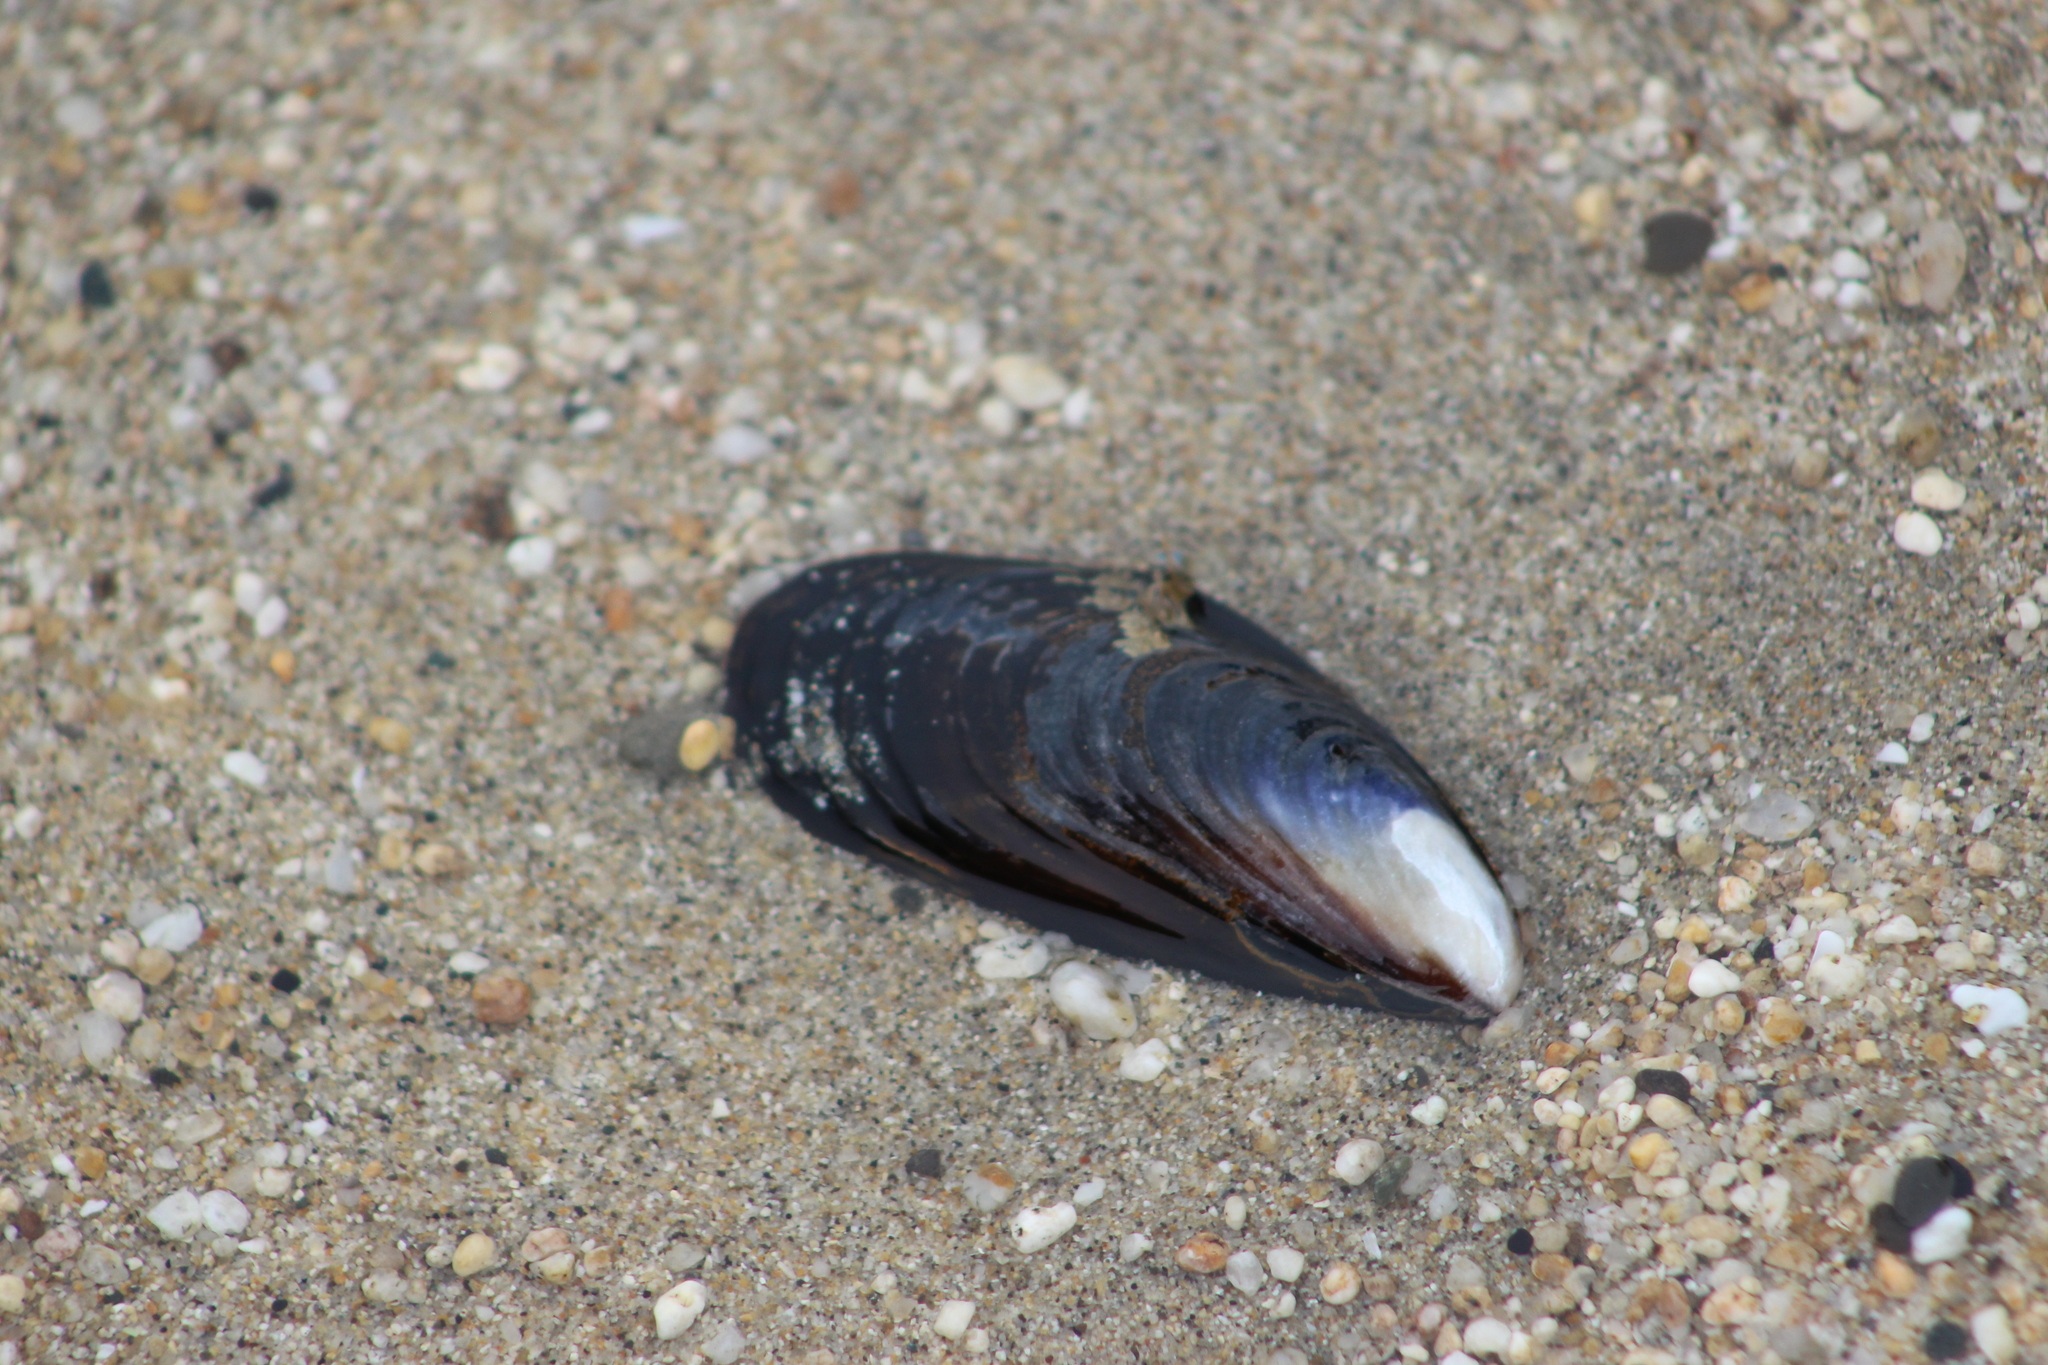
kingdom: Animalia
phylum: Mollusca
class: Bivalvia
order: Mytilida
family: Mytilidae
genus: Mytilus
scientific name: Mytilus californianus
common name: California mussel
